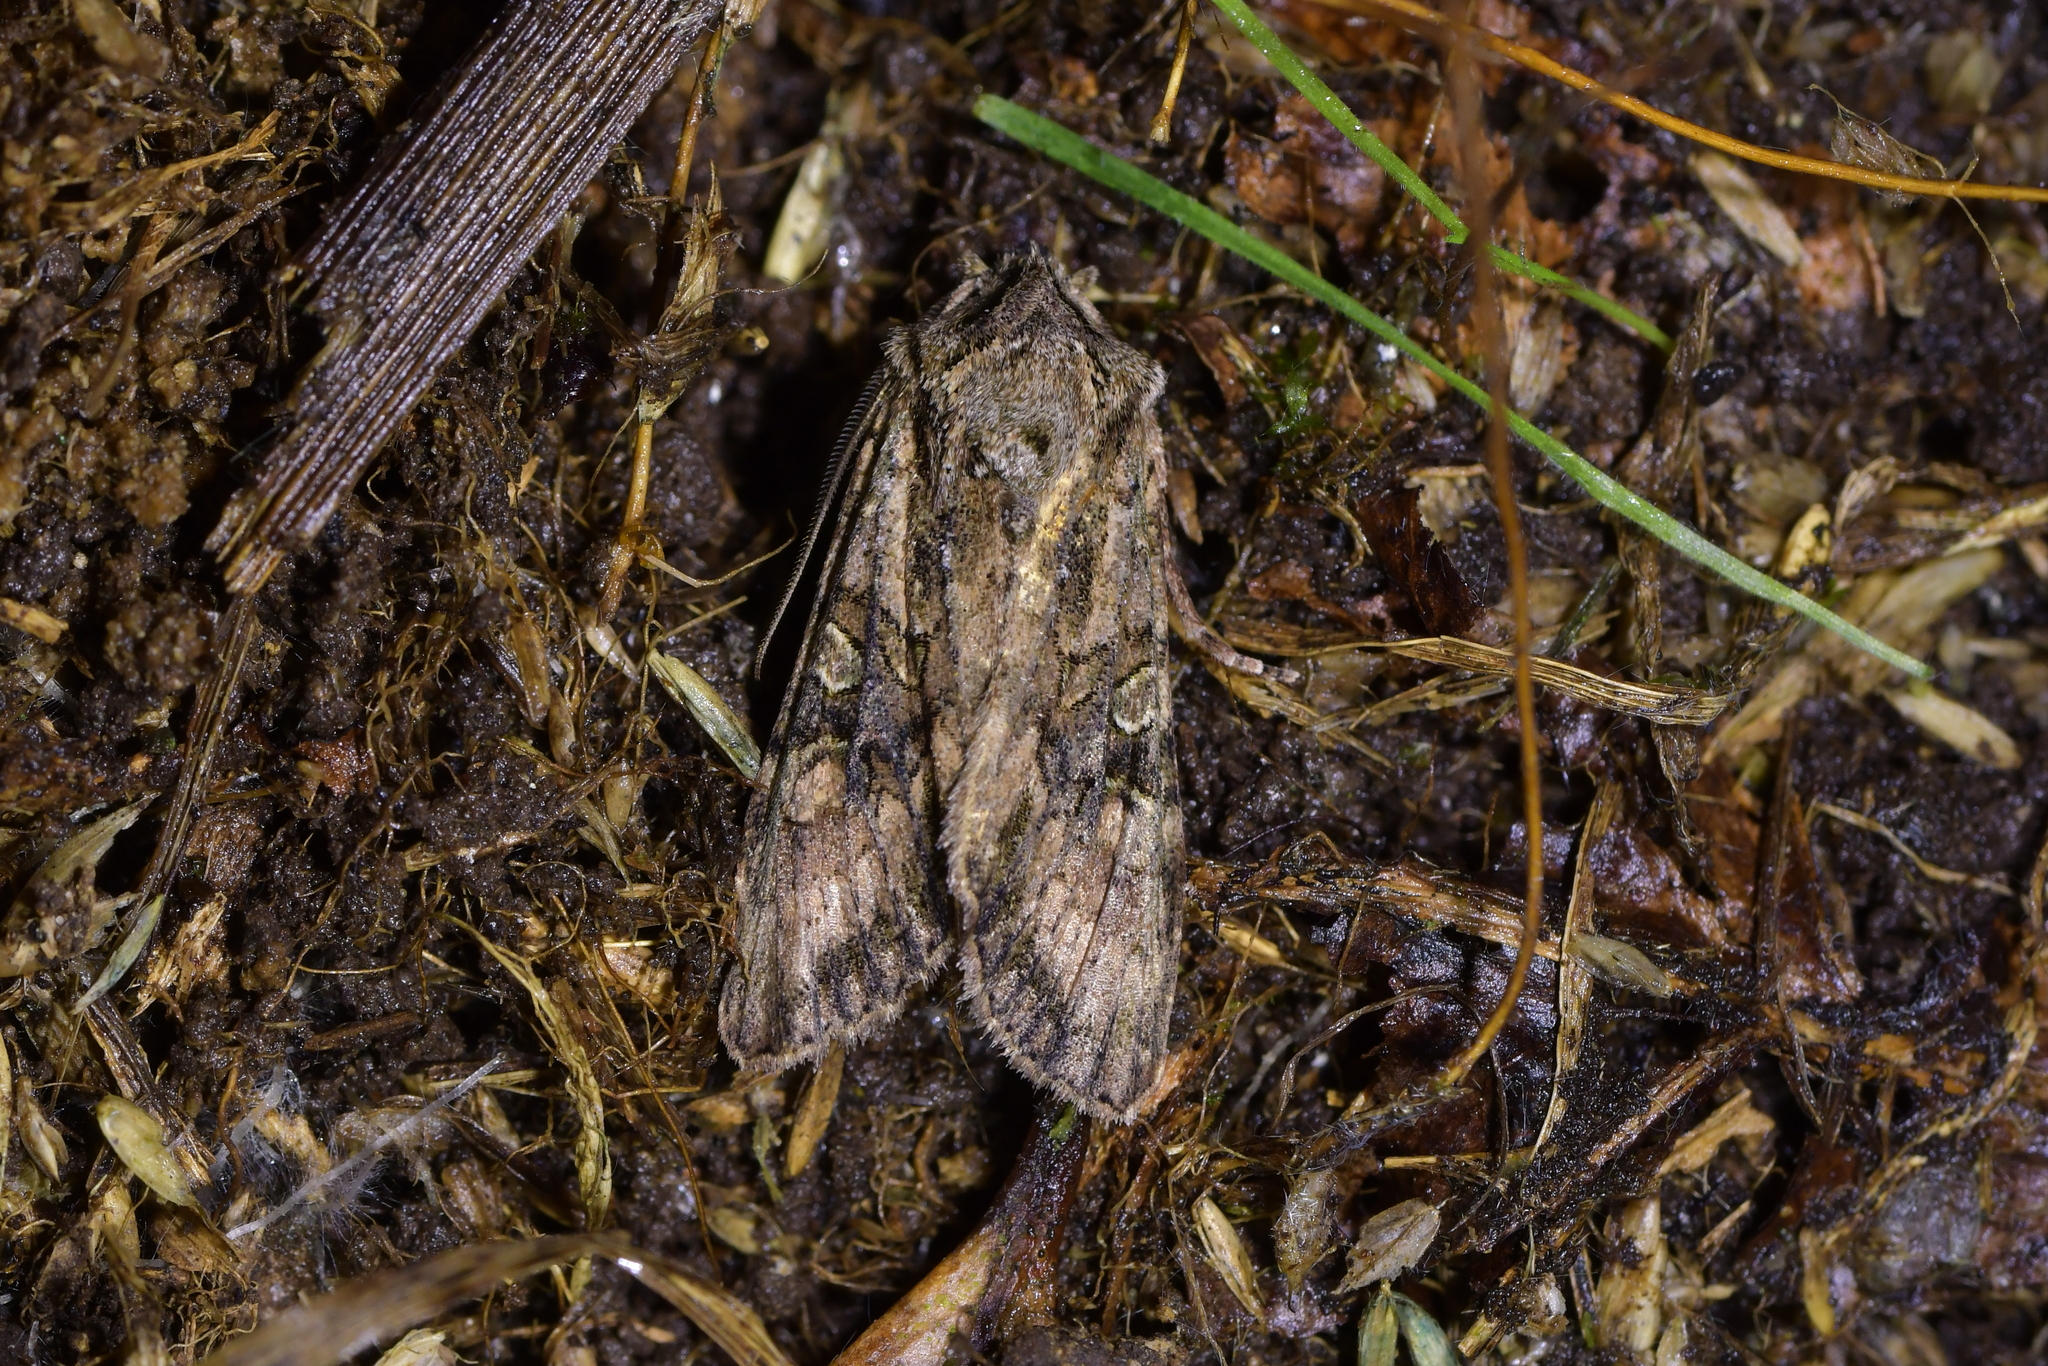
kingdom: Animalia
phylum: Arthropoda
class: Insecta
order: Lepidoptera
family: Noctuidae
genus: Ichneutica
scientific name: Ichneutica mutans
